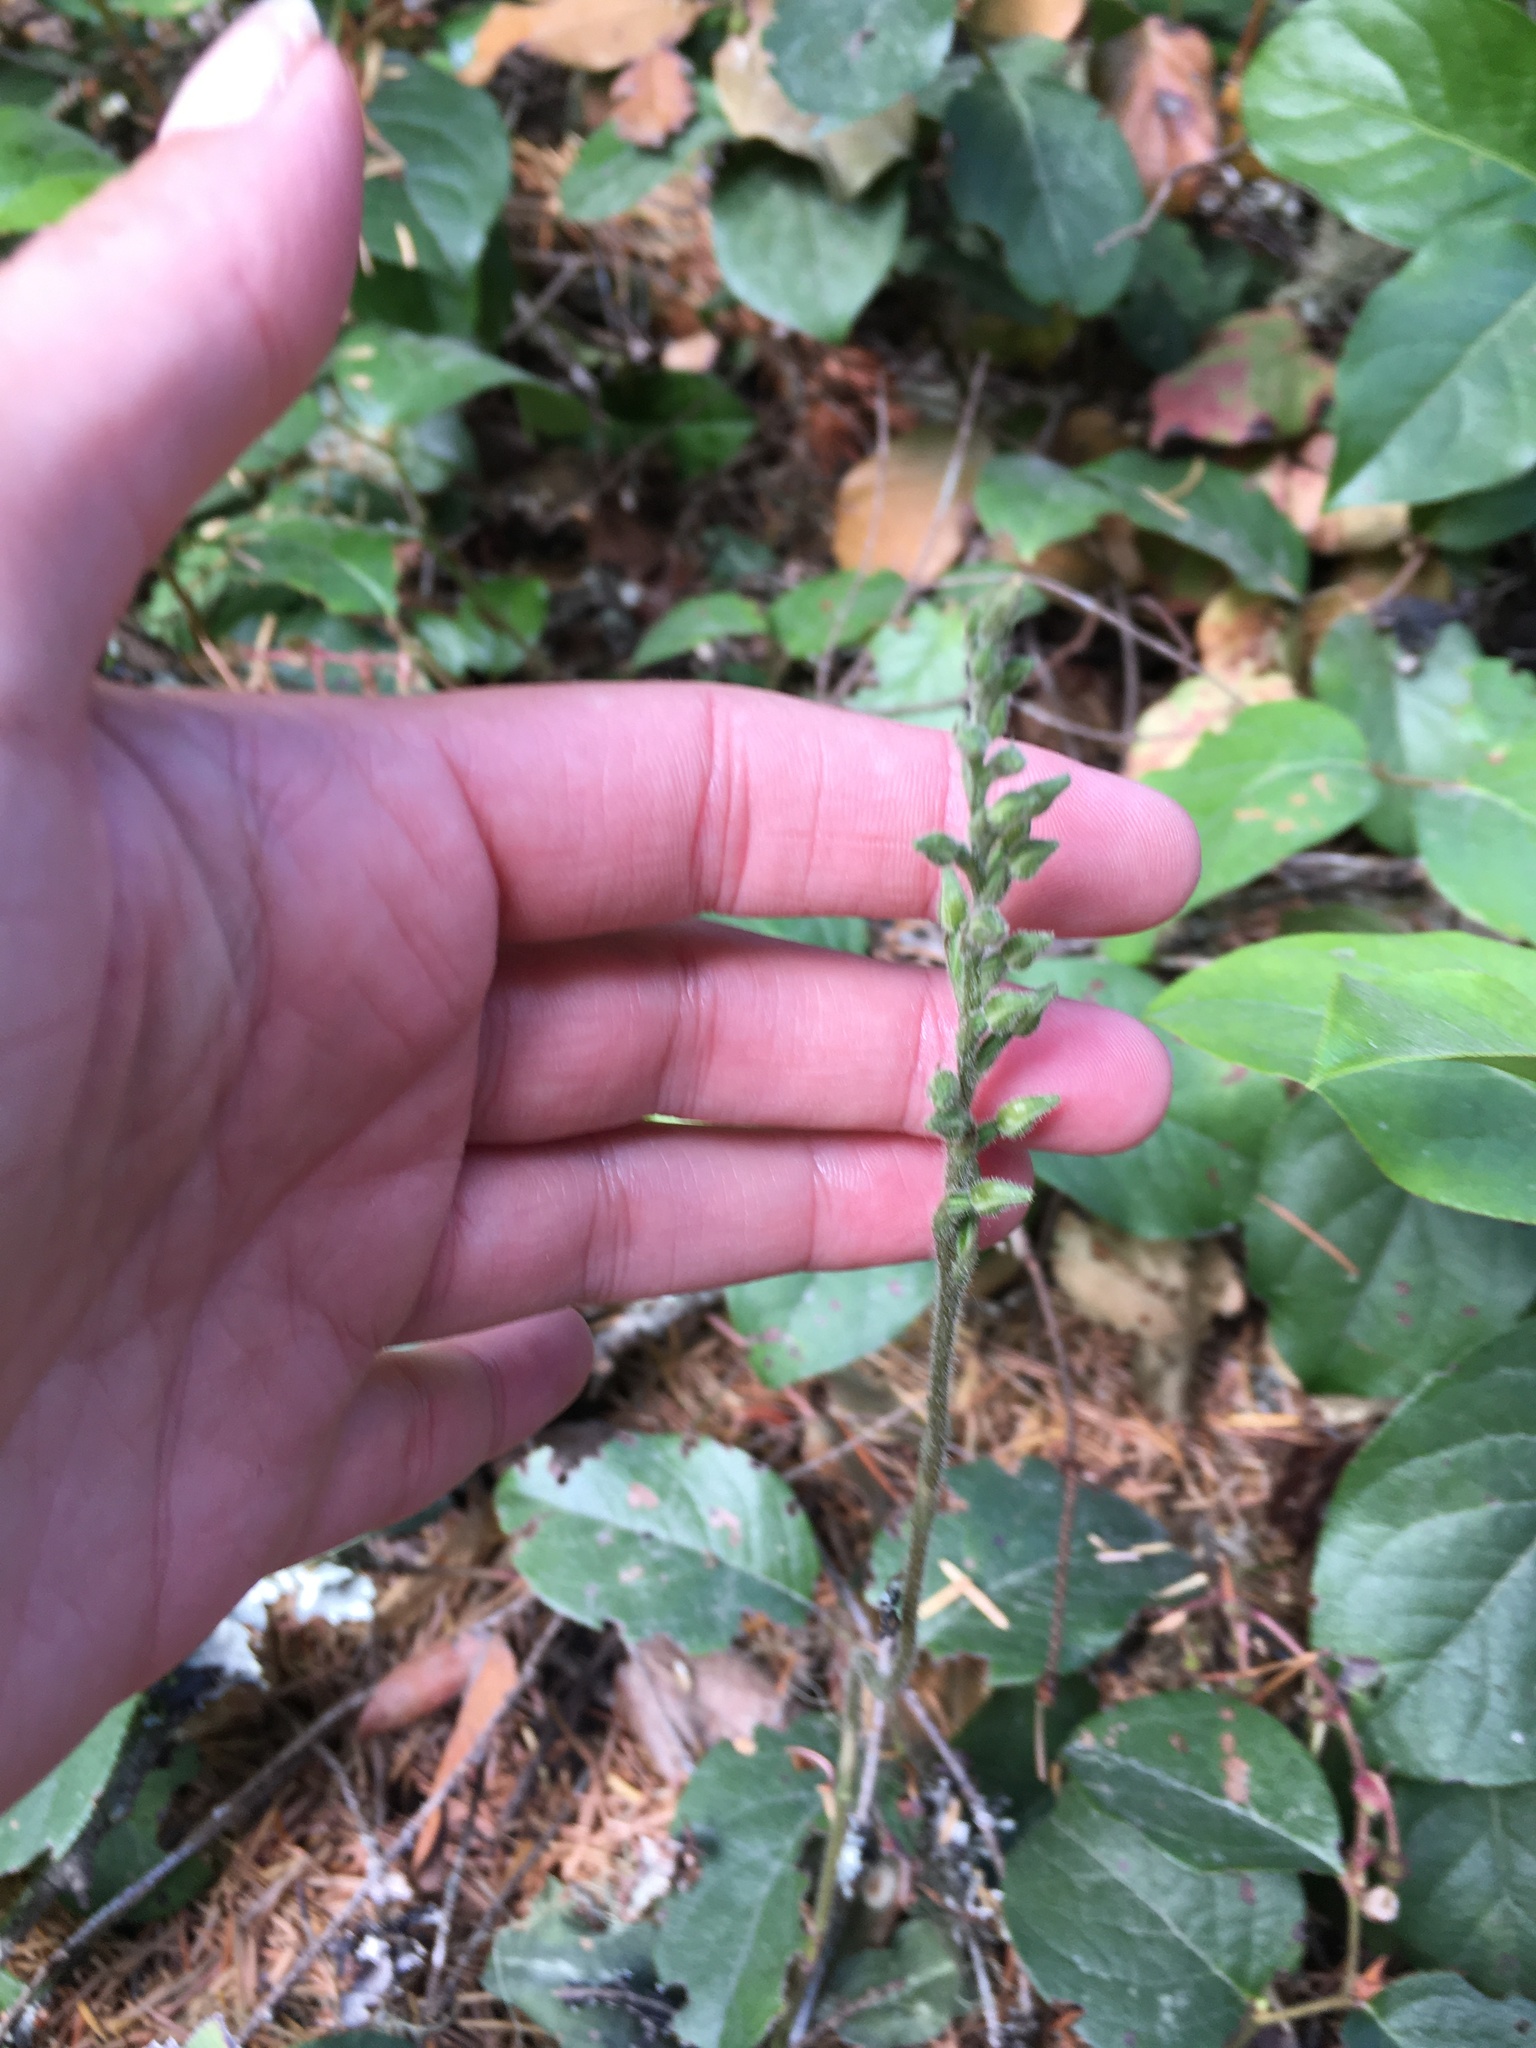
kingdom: Plantae
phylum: Tracheophyta
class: Liliopsida
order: Asparagales
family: Orchidaceae
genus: Goodyera
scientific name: Goodyera oblongifolia
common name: Giant rattlesnake-plantain
